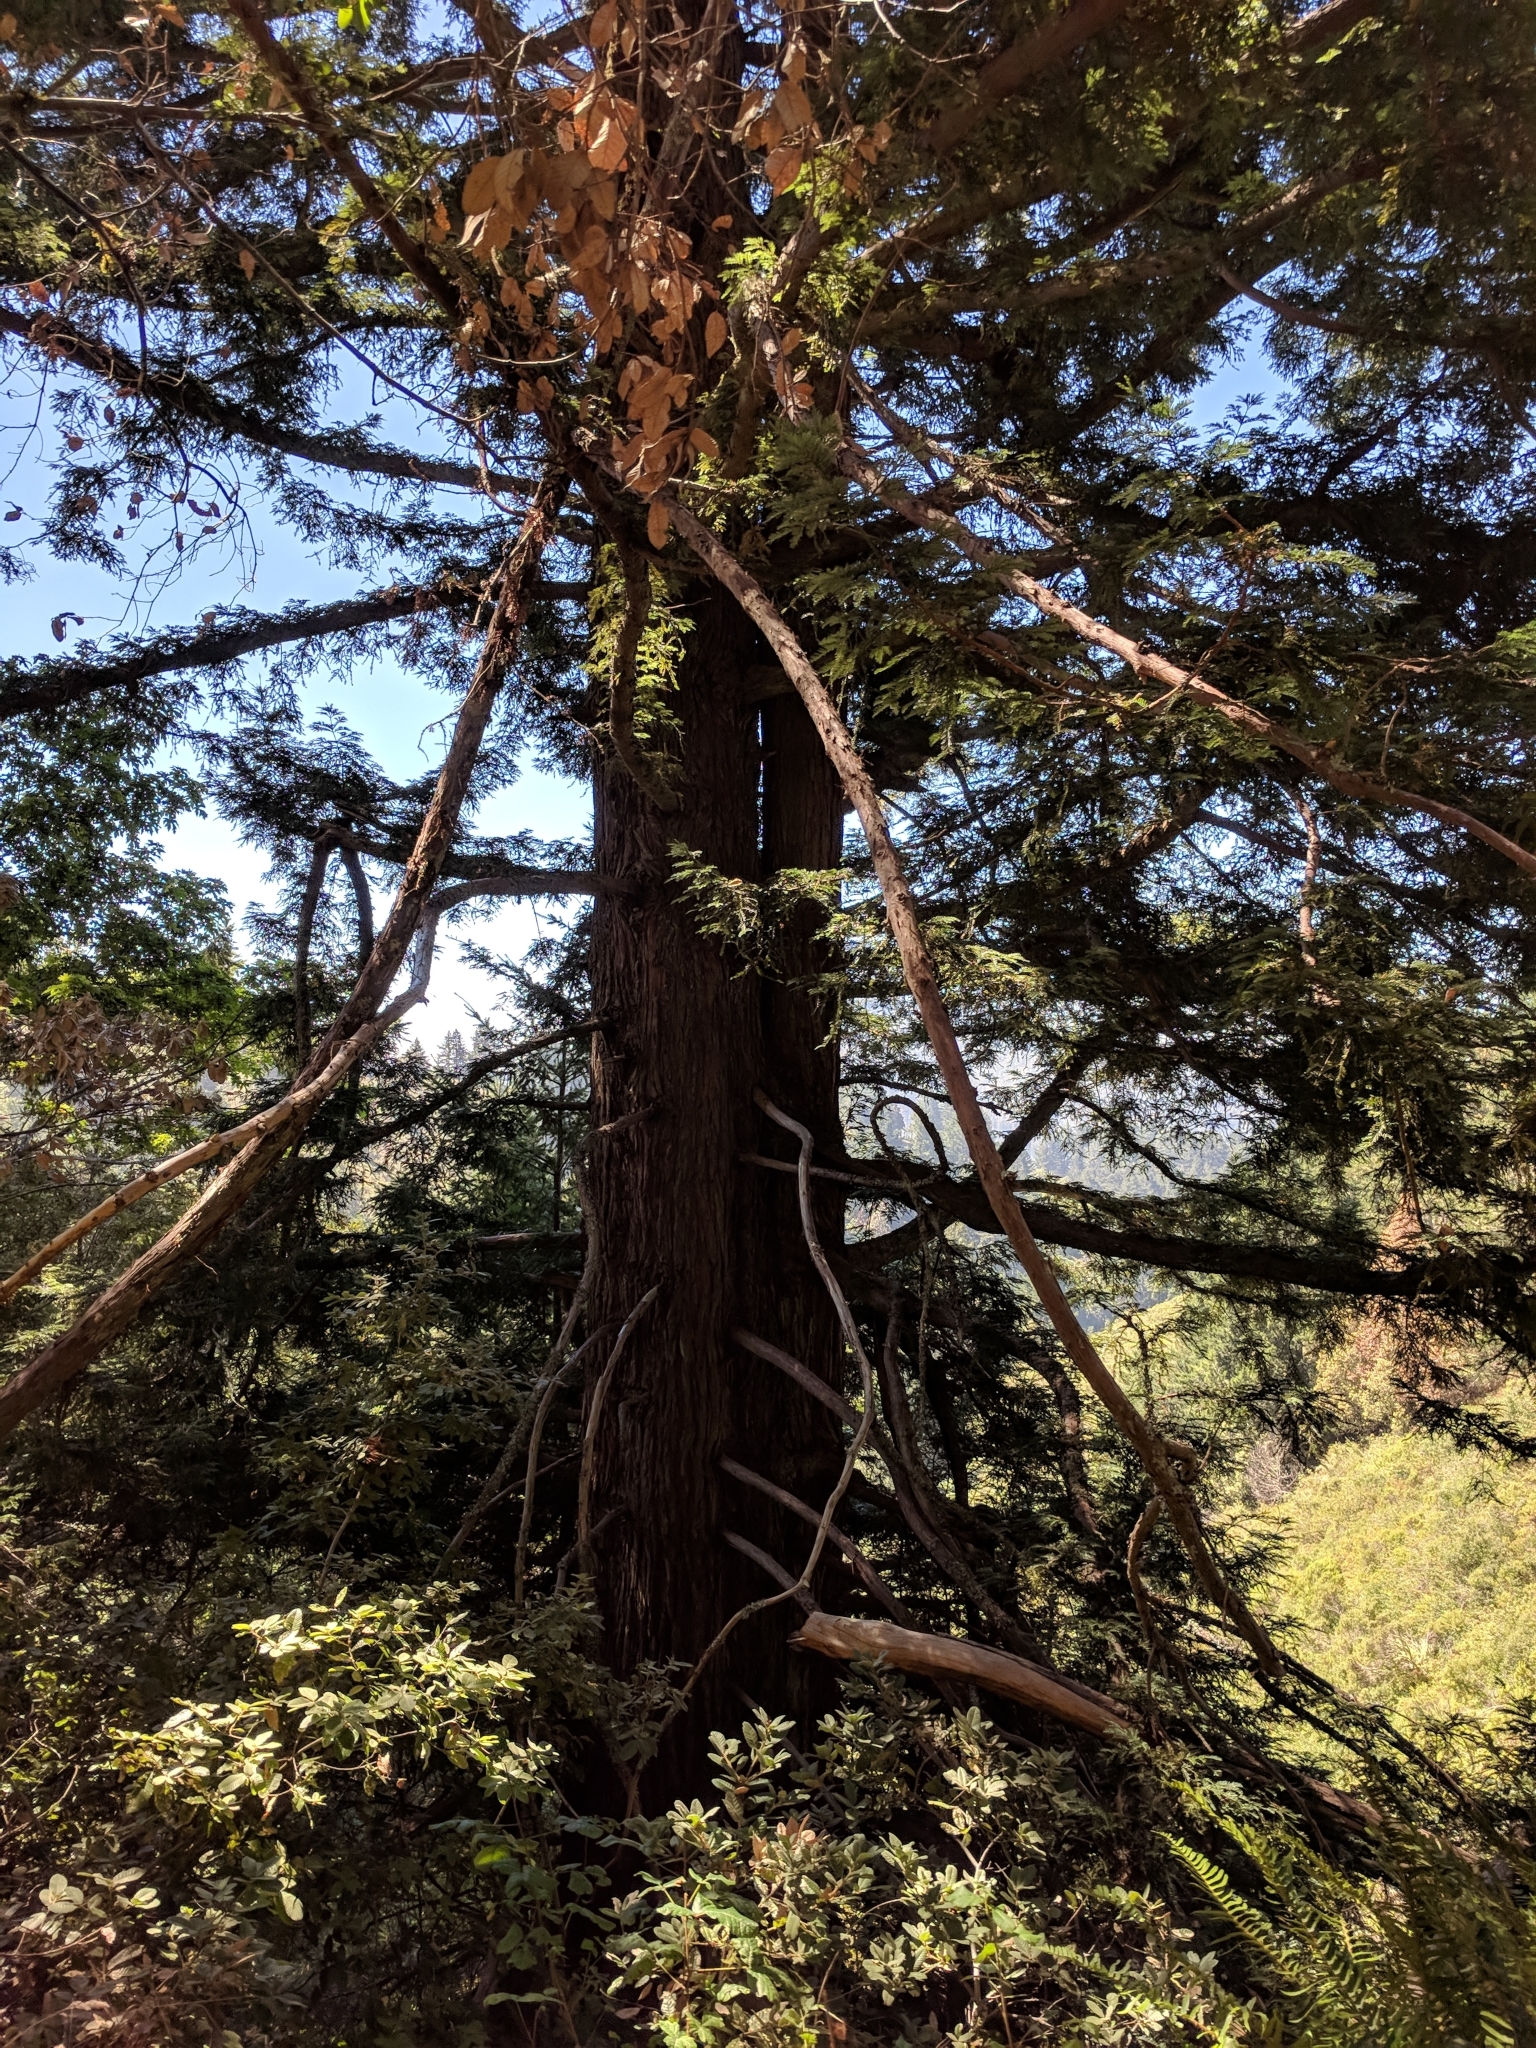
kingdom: Plantae
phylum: Tracheophyta
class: Pinopsida
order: Pinales
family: Cupressaceae
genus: Sequoia
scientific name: Sequoia sempervirens
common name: Coast redwood
